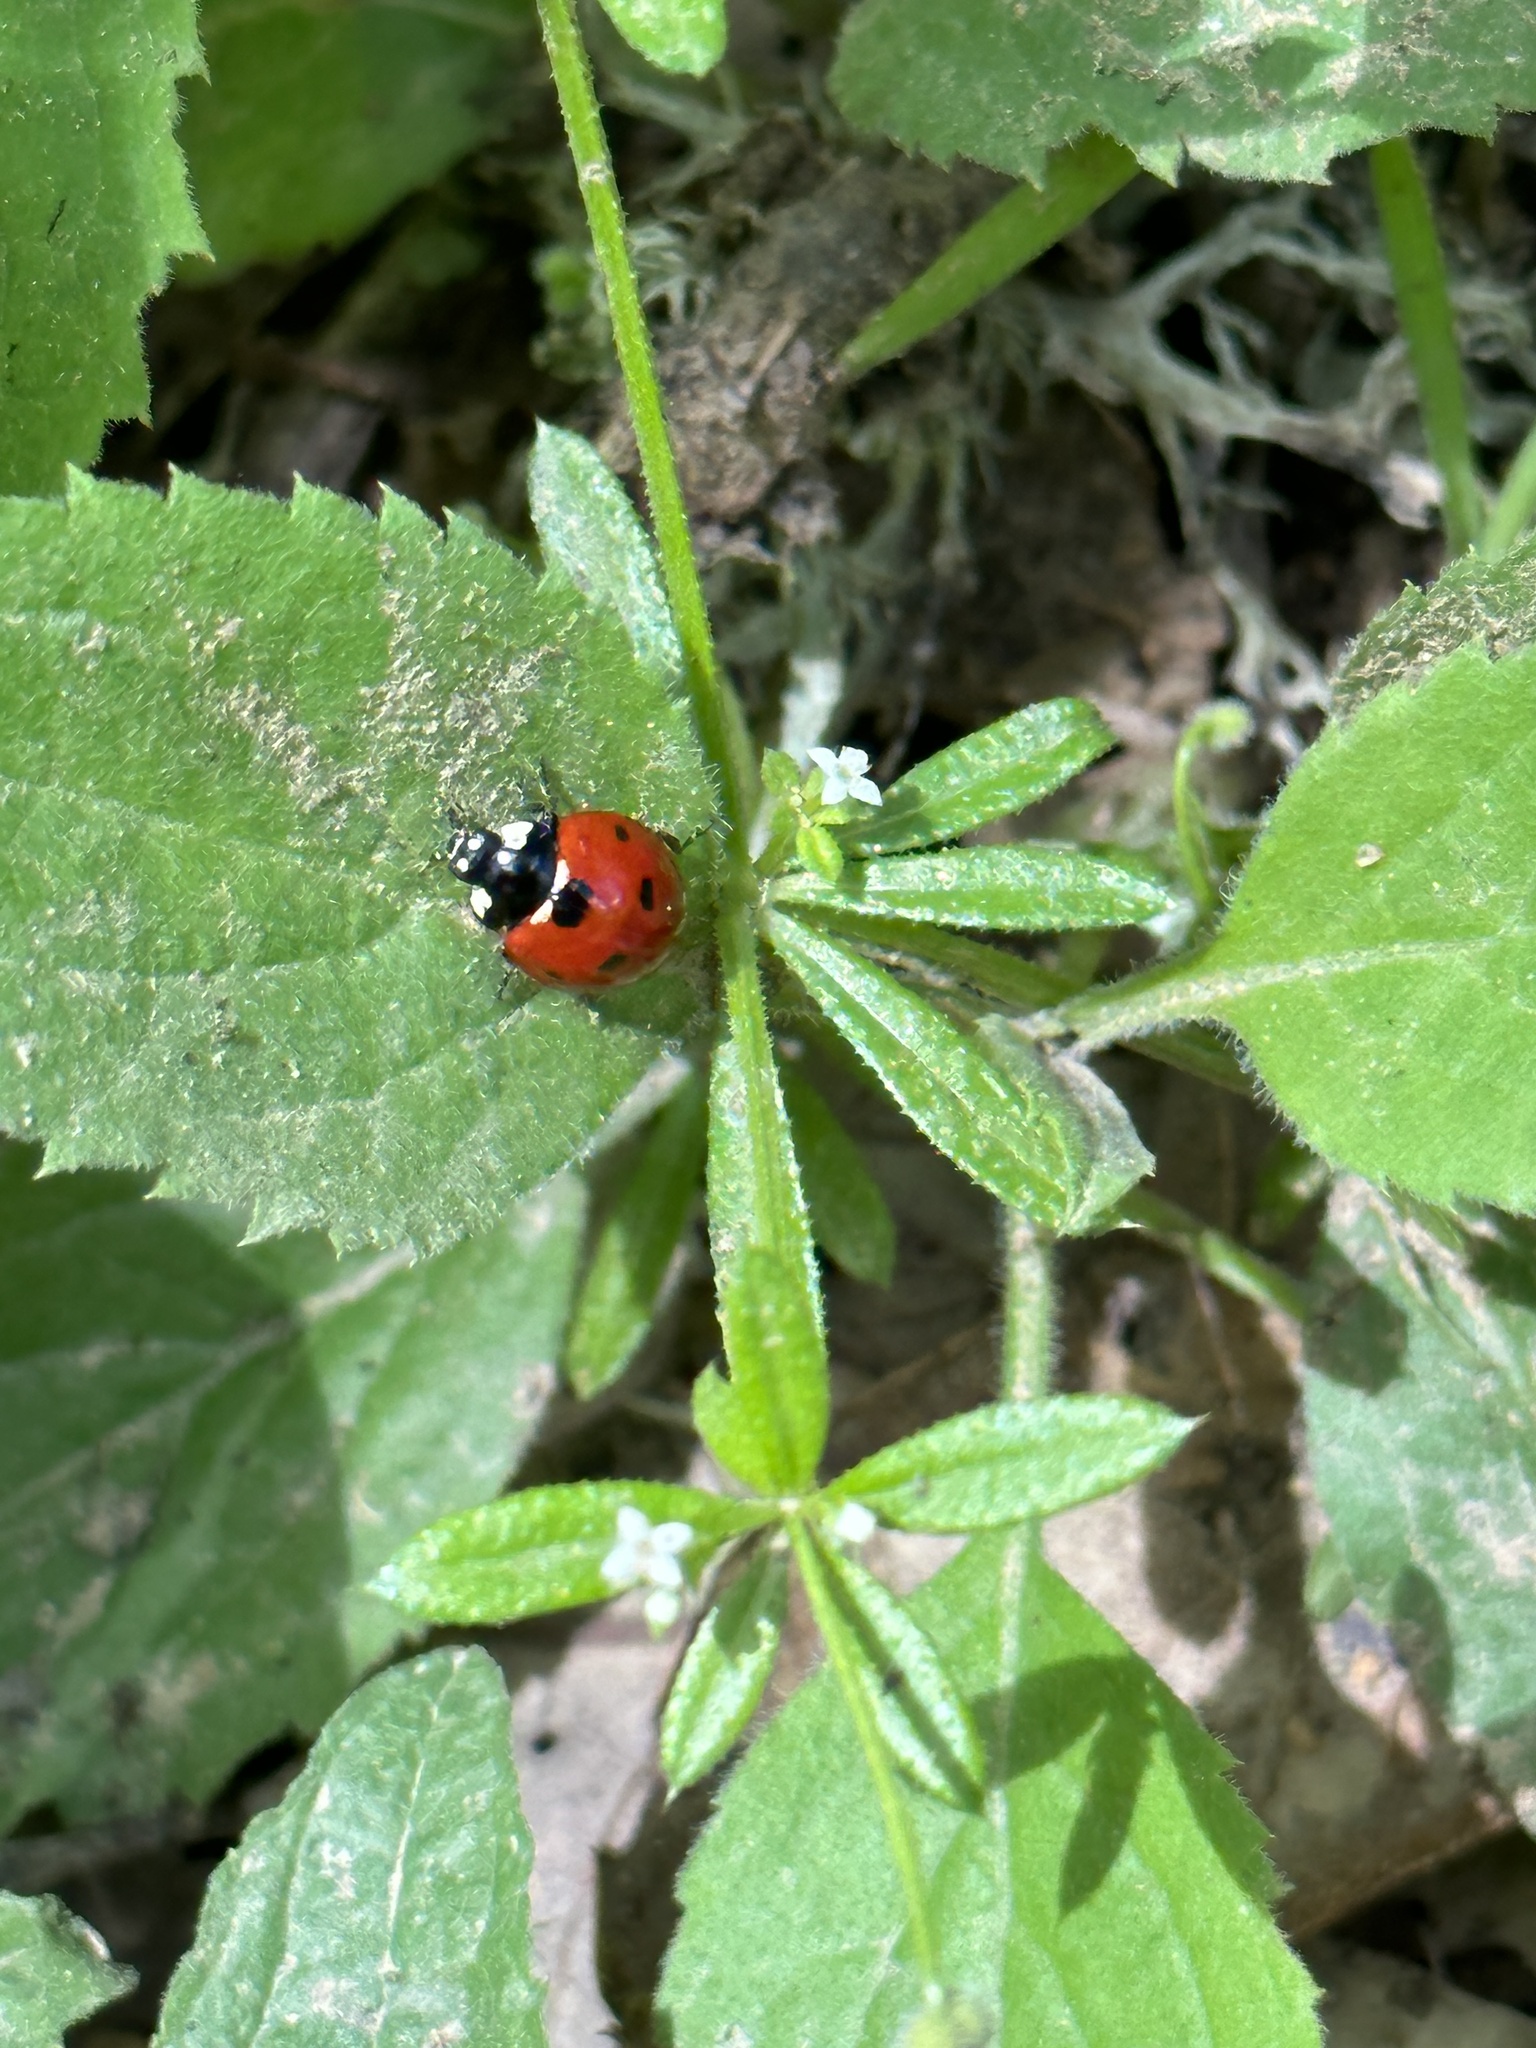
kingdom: Animalia
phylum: Arthropoda
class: Insecta
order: Coleoptera
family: Coccinellidae
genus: Coccinella
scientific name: Coccinella septempunctata
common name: Sevenspotted lady beetle
